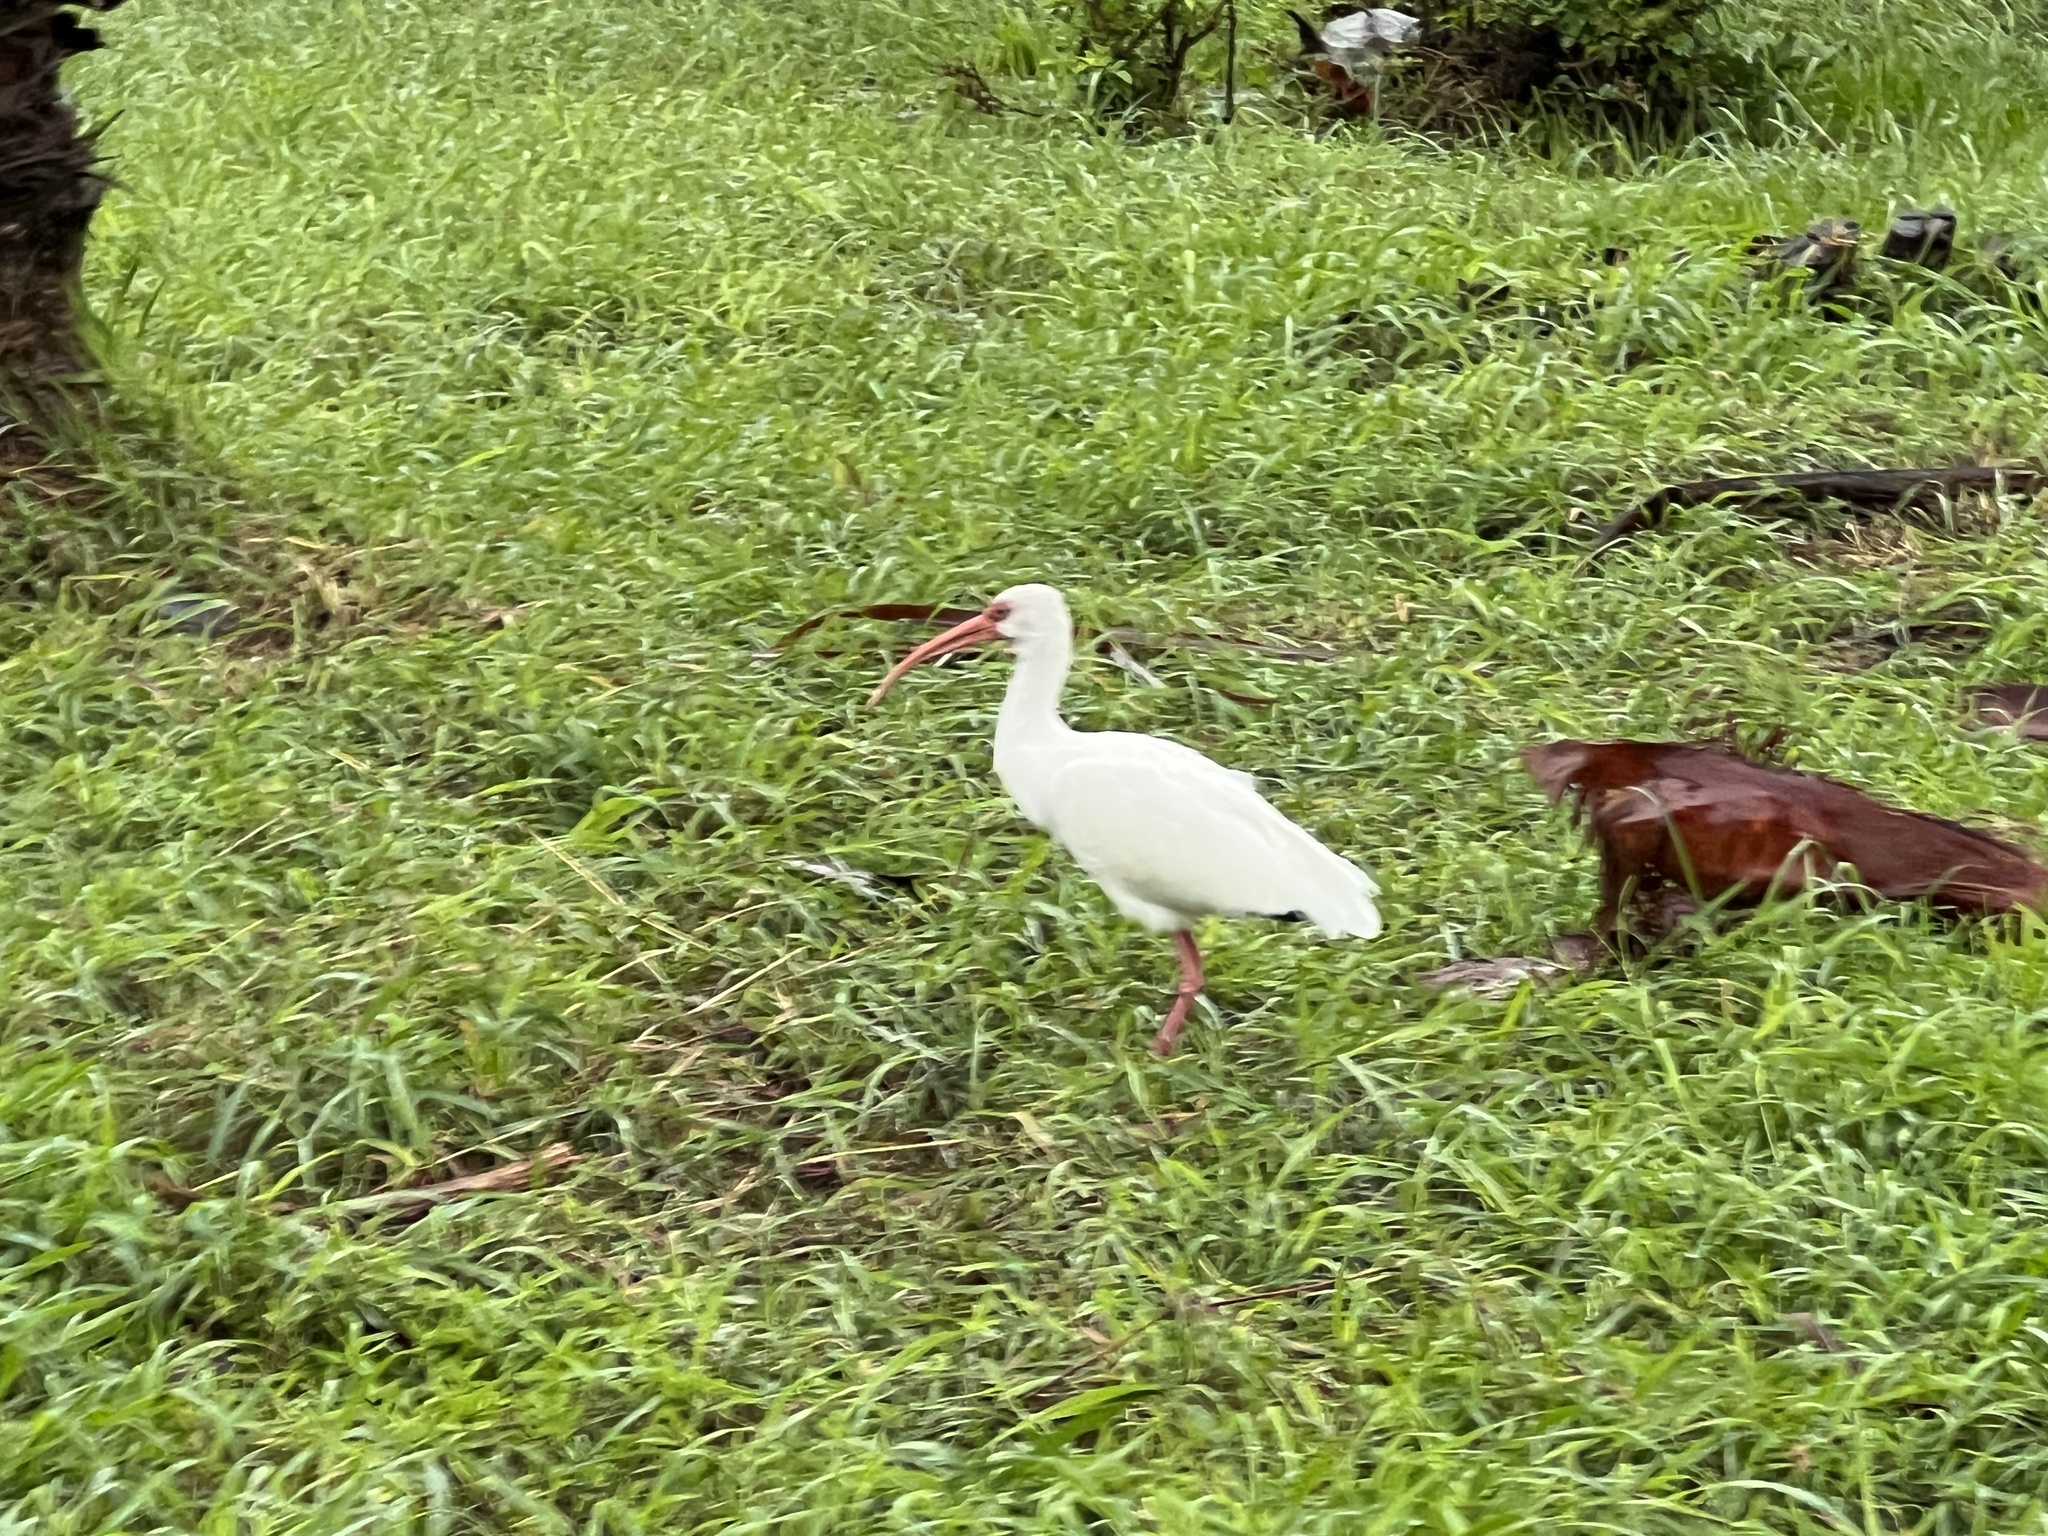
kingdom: Animalia
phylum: Chordata
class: Aves
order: Pelecaniformes
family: Threskiornithidae
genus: Eudocimus
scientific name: Eudocimus albus
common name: White ibis
